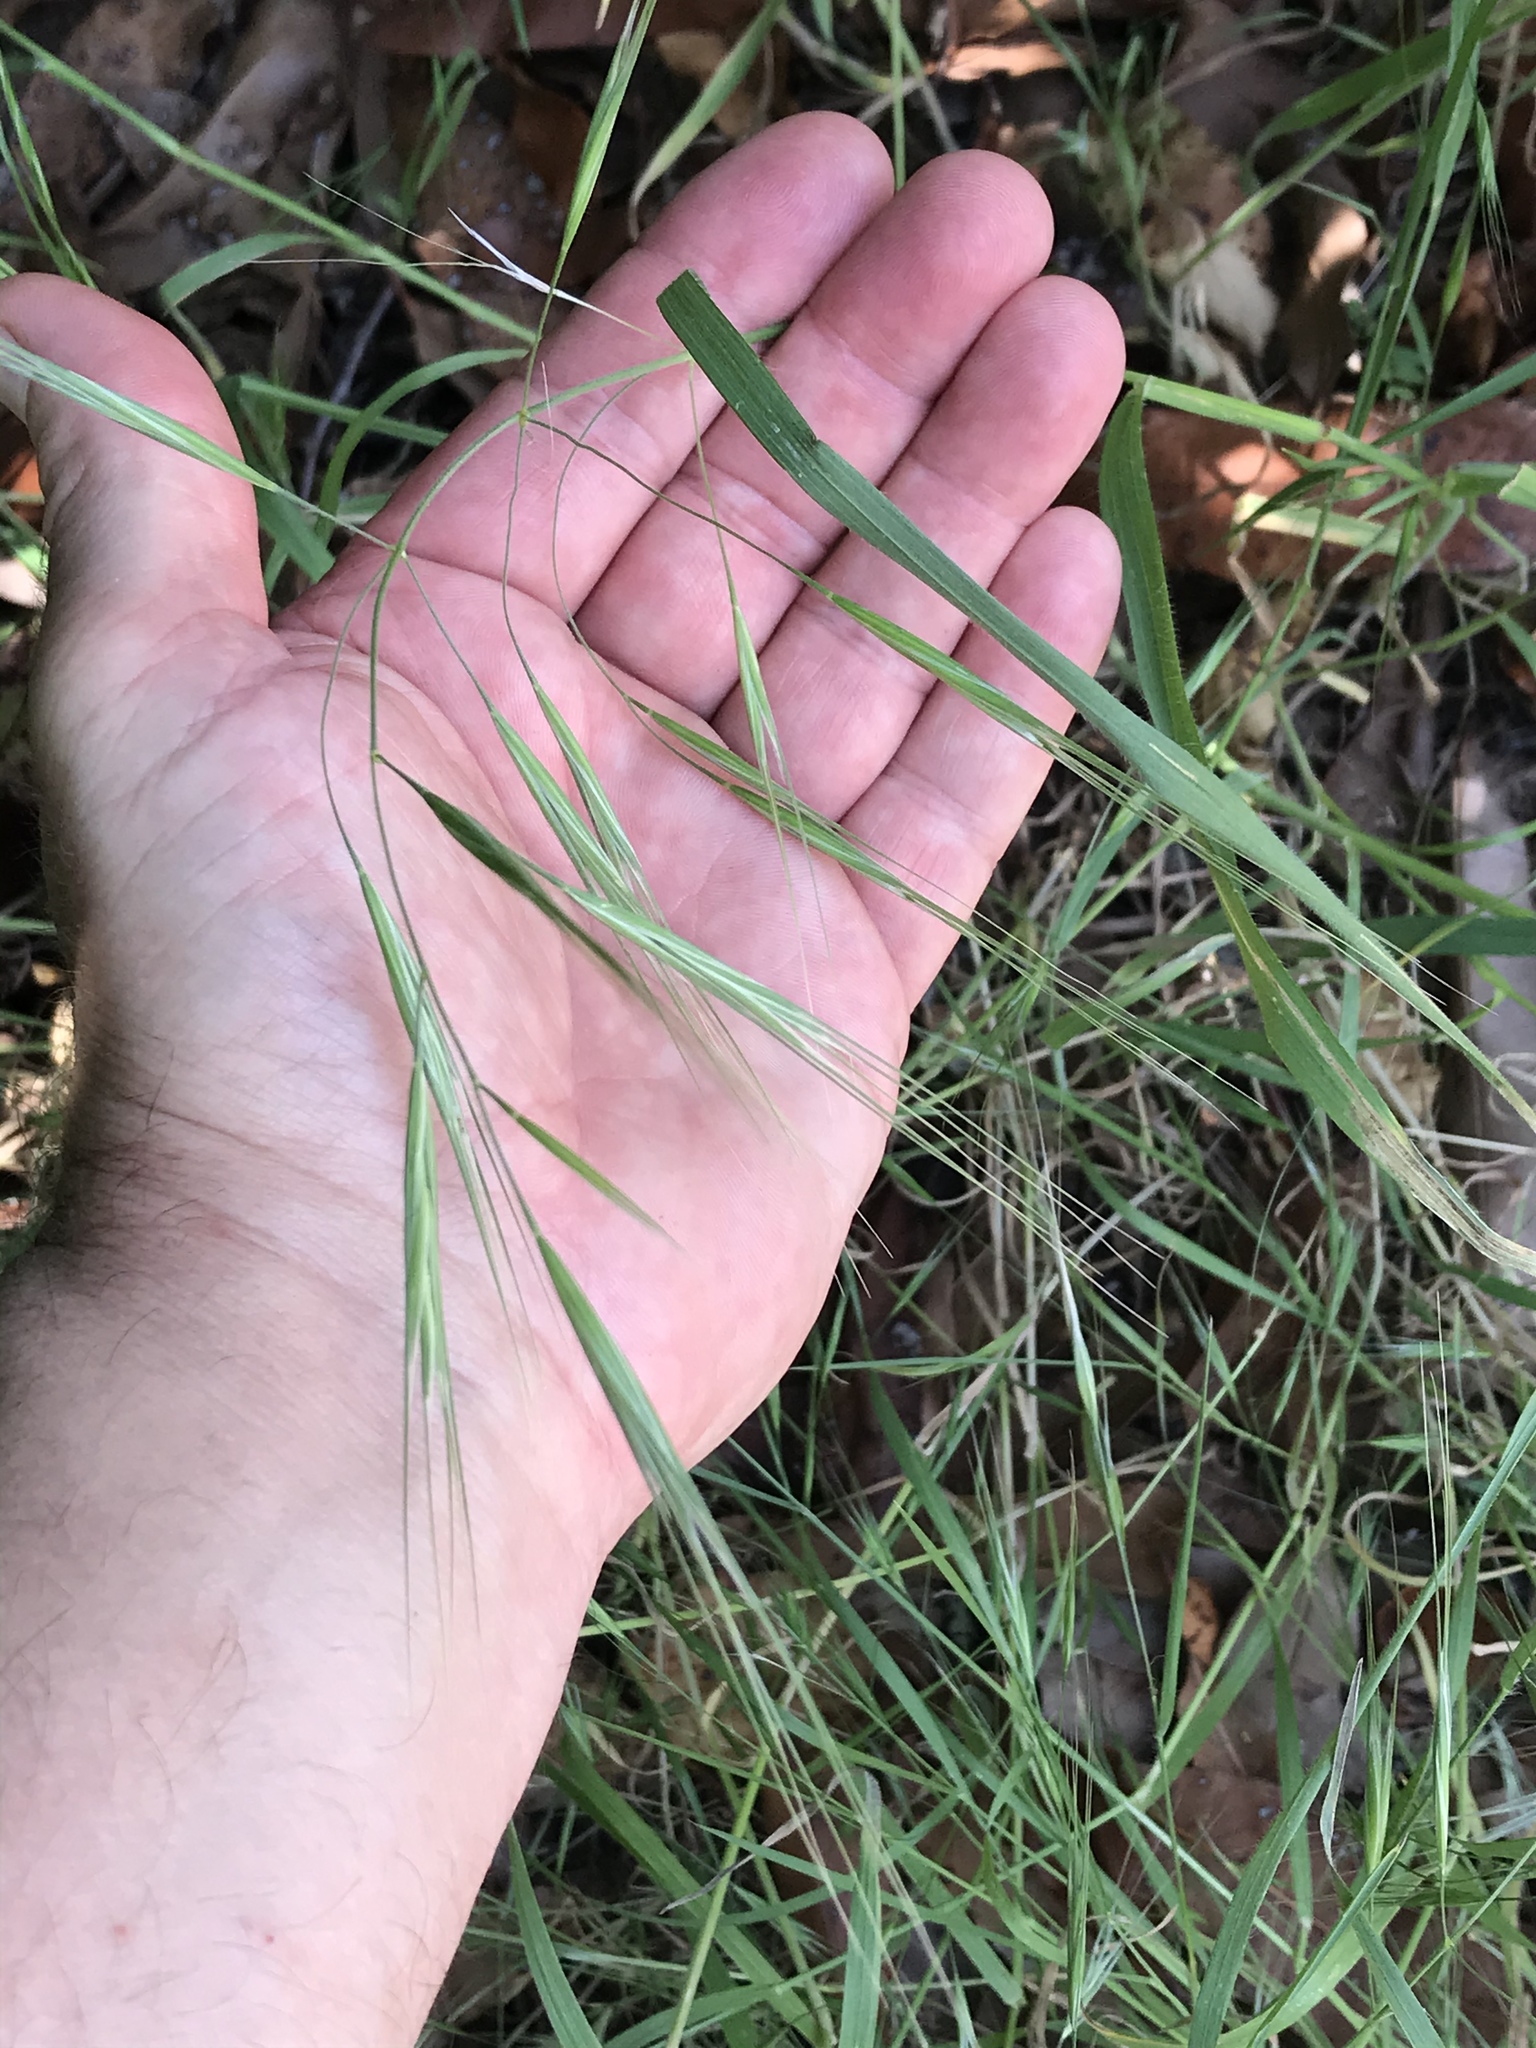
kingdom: Plantae
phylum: Tracheophyta
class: Liliopsida
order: Poales
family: Poaceae
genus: Bromus
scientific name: Bromus diandrus
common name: Ripgut brome
